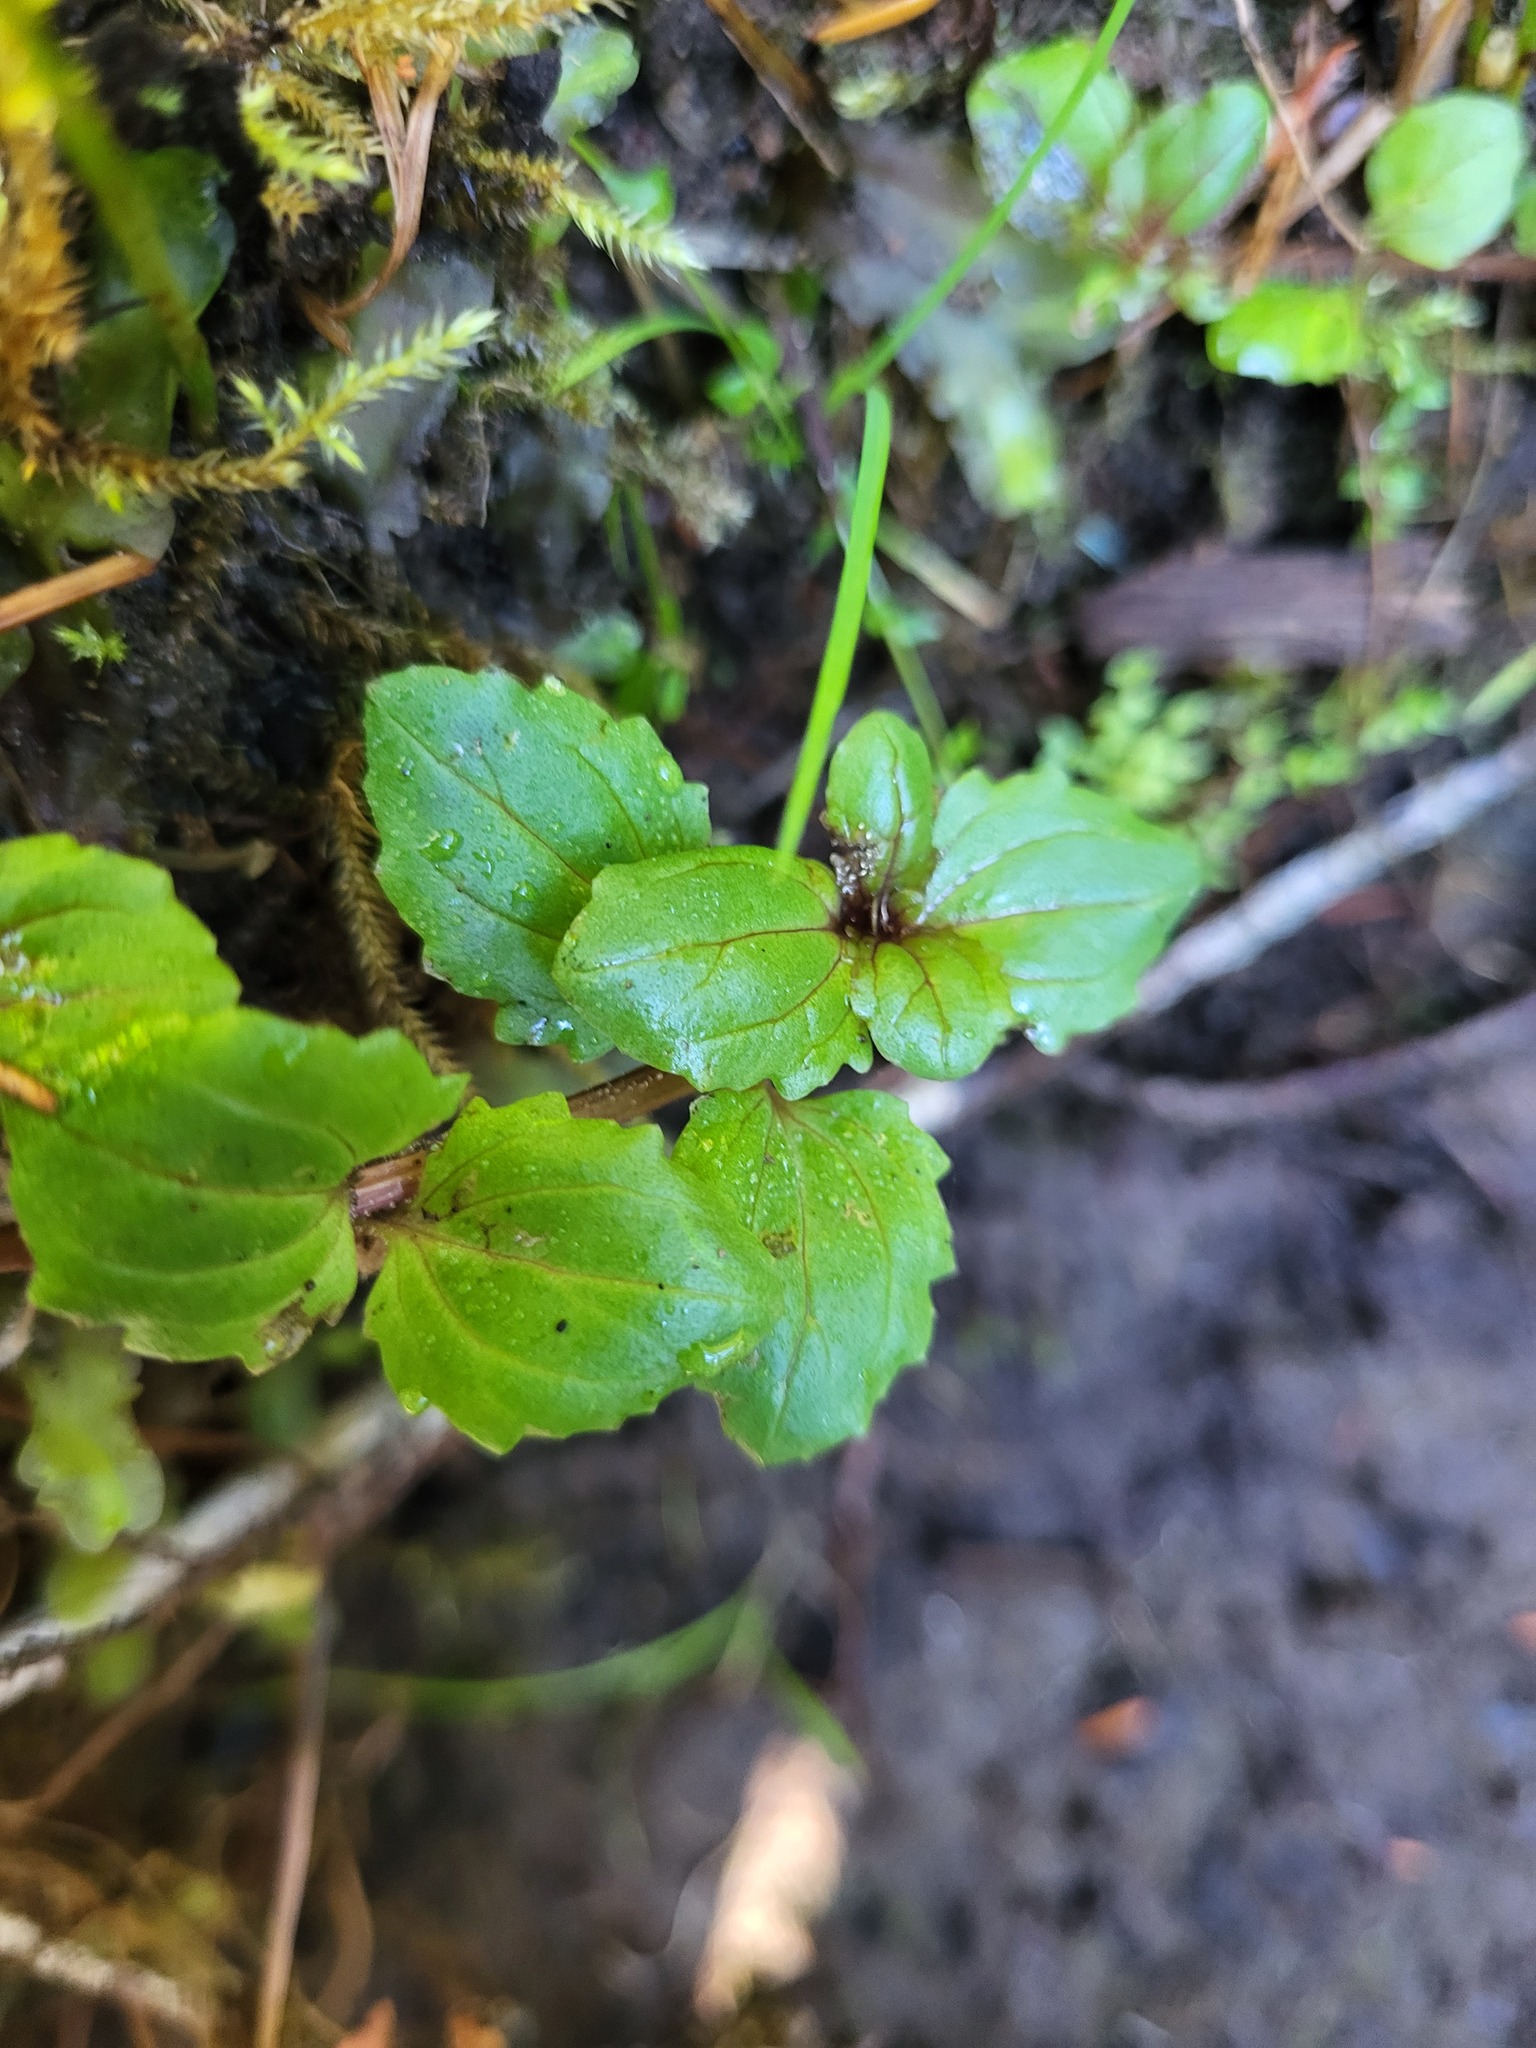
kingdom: Plantae
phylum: Tracheophyta
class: Magnoliopsida
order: Lamiales
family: Phrymaceae
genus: Erythranthe
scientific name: Erythranthe guttata
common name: Monkeyflower
